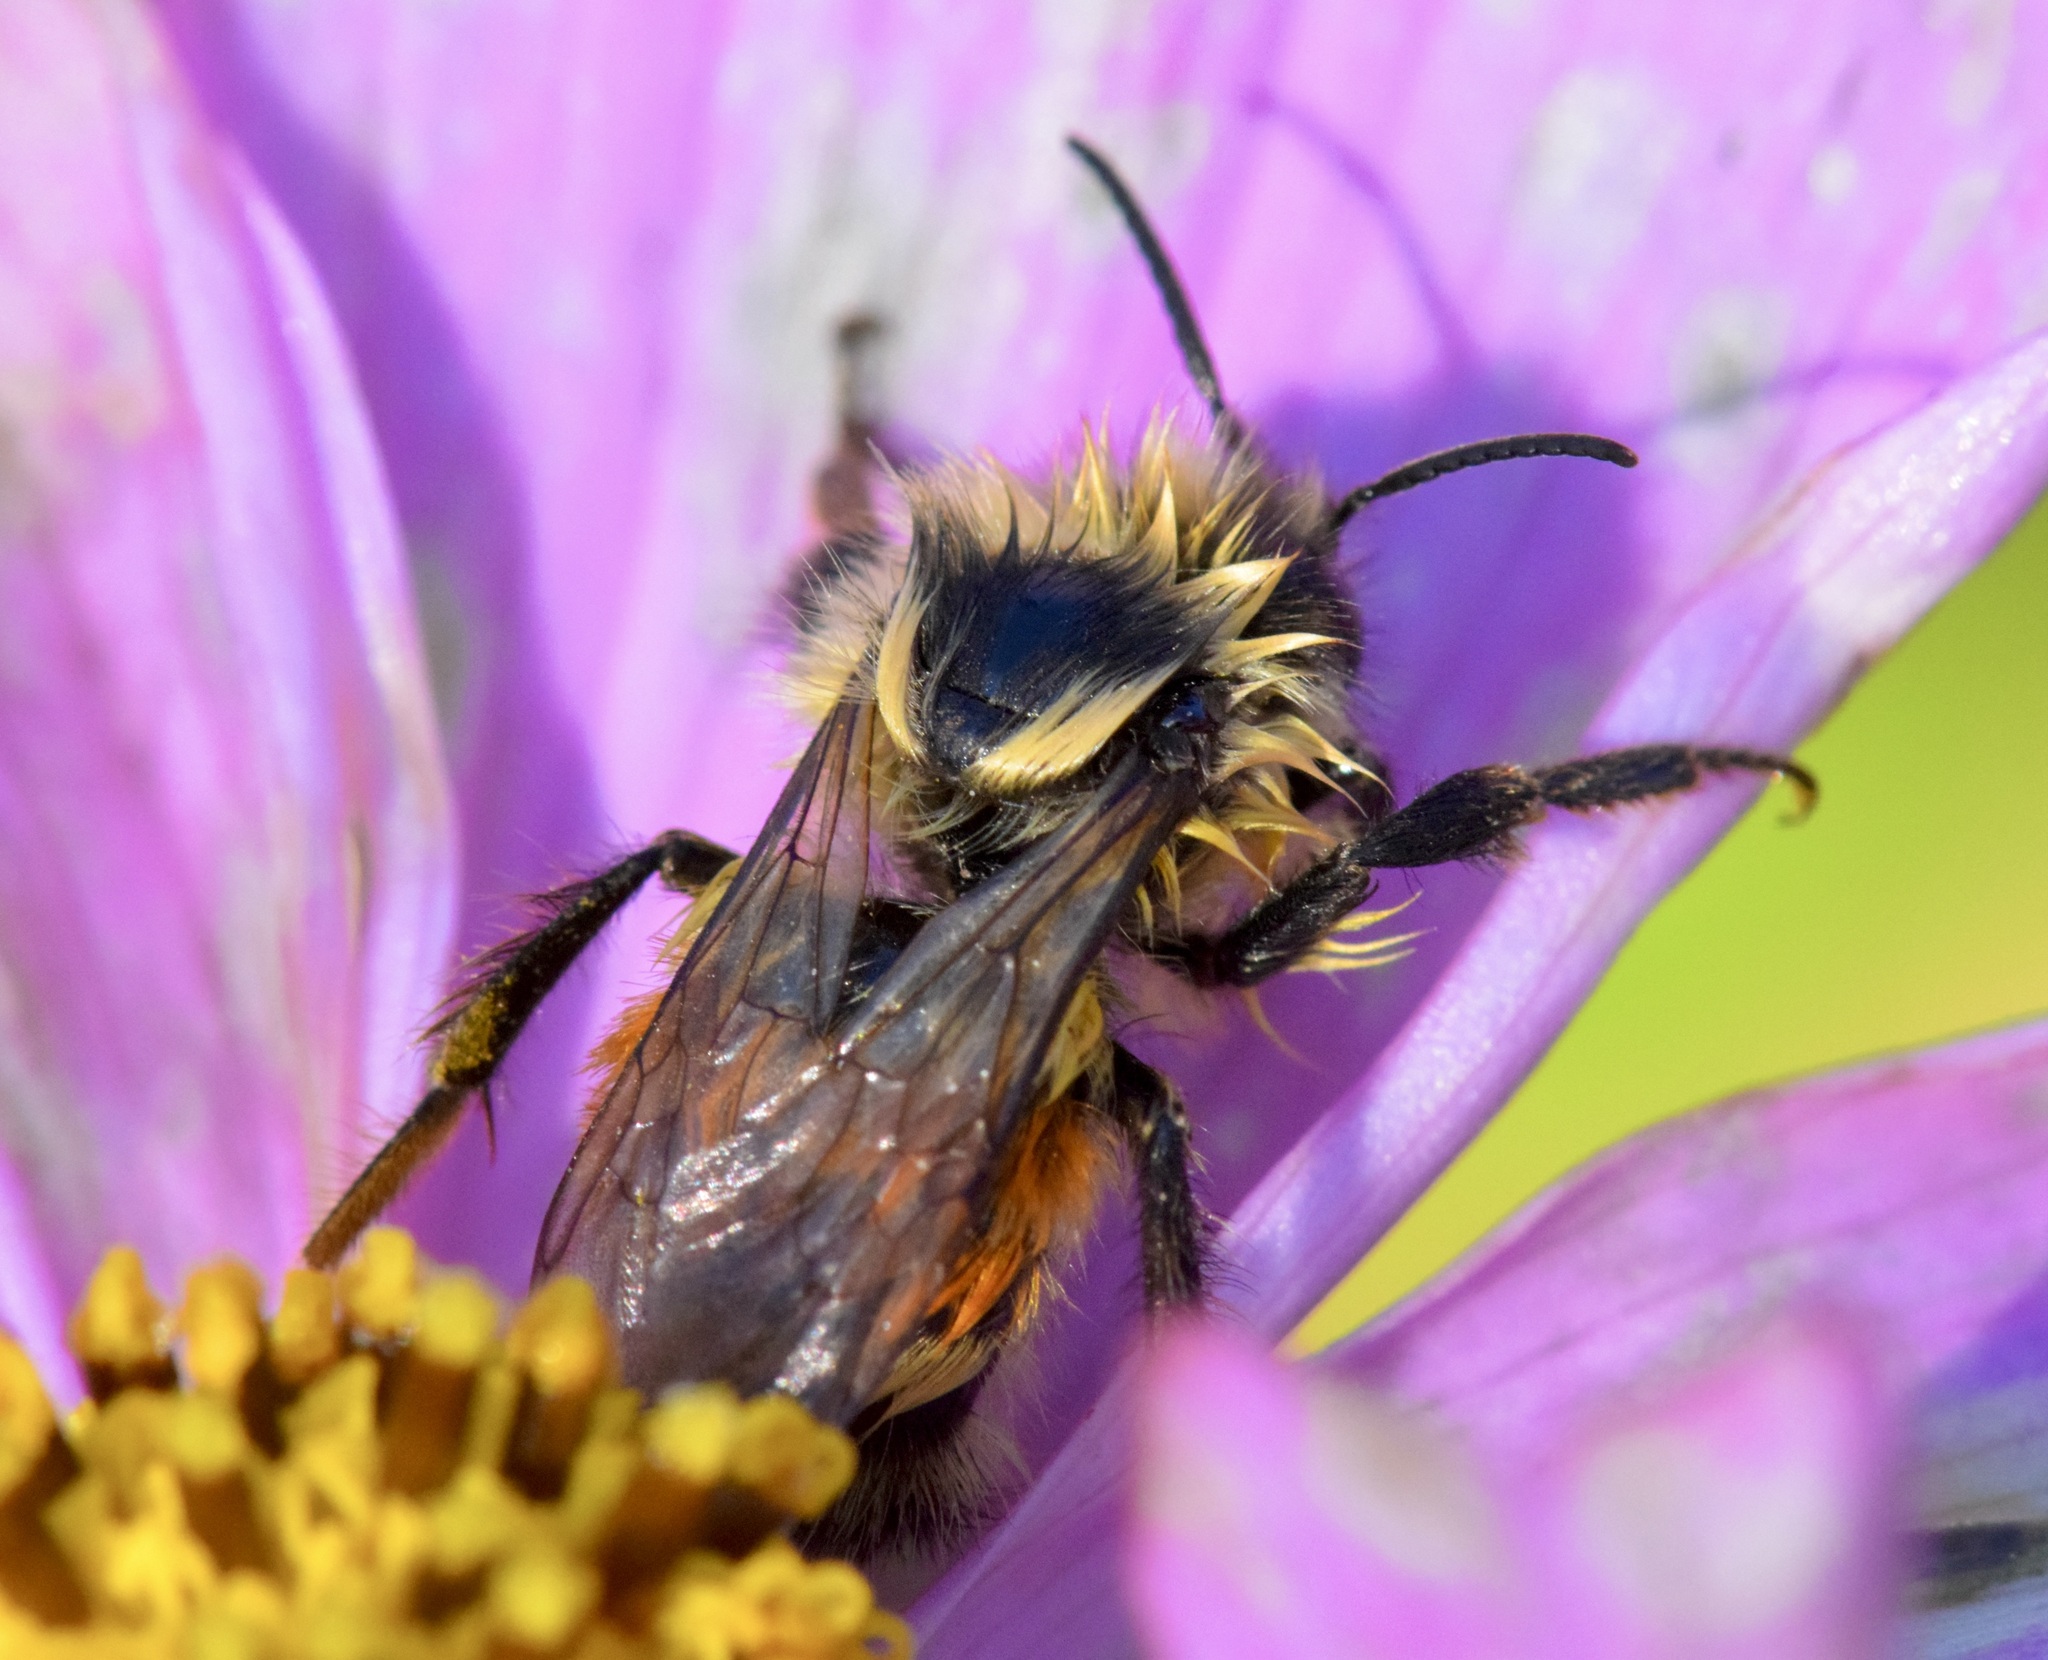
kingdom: Animalia
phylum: Arthropoda
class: Insecta
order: Hymenoptera
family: Apidae
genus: Bombus
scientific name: Bombus ternarius
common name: Tri-colored bumble bee
